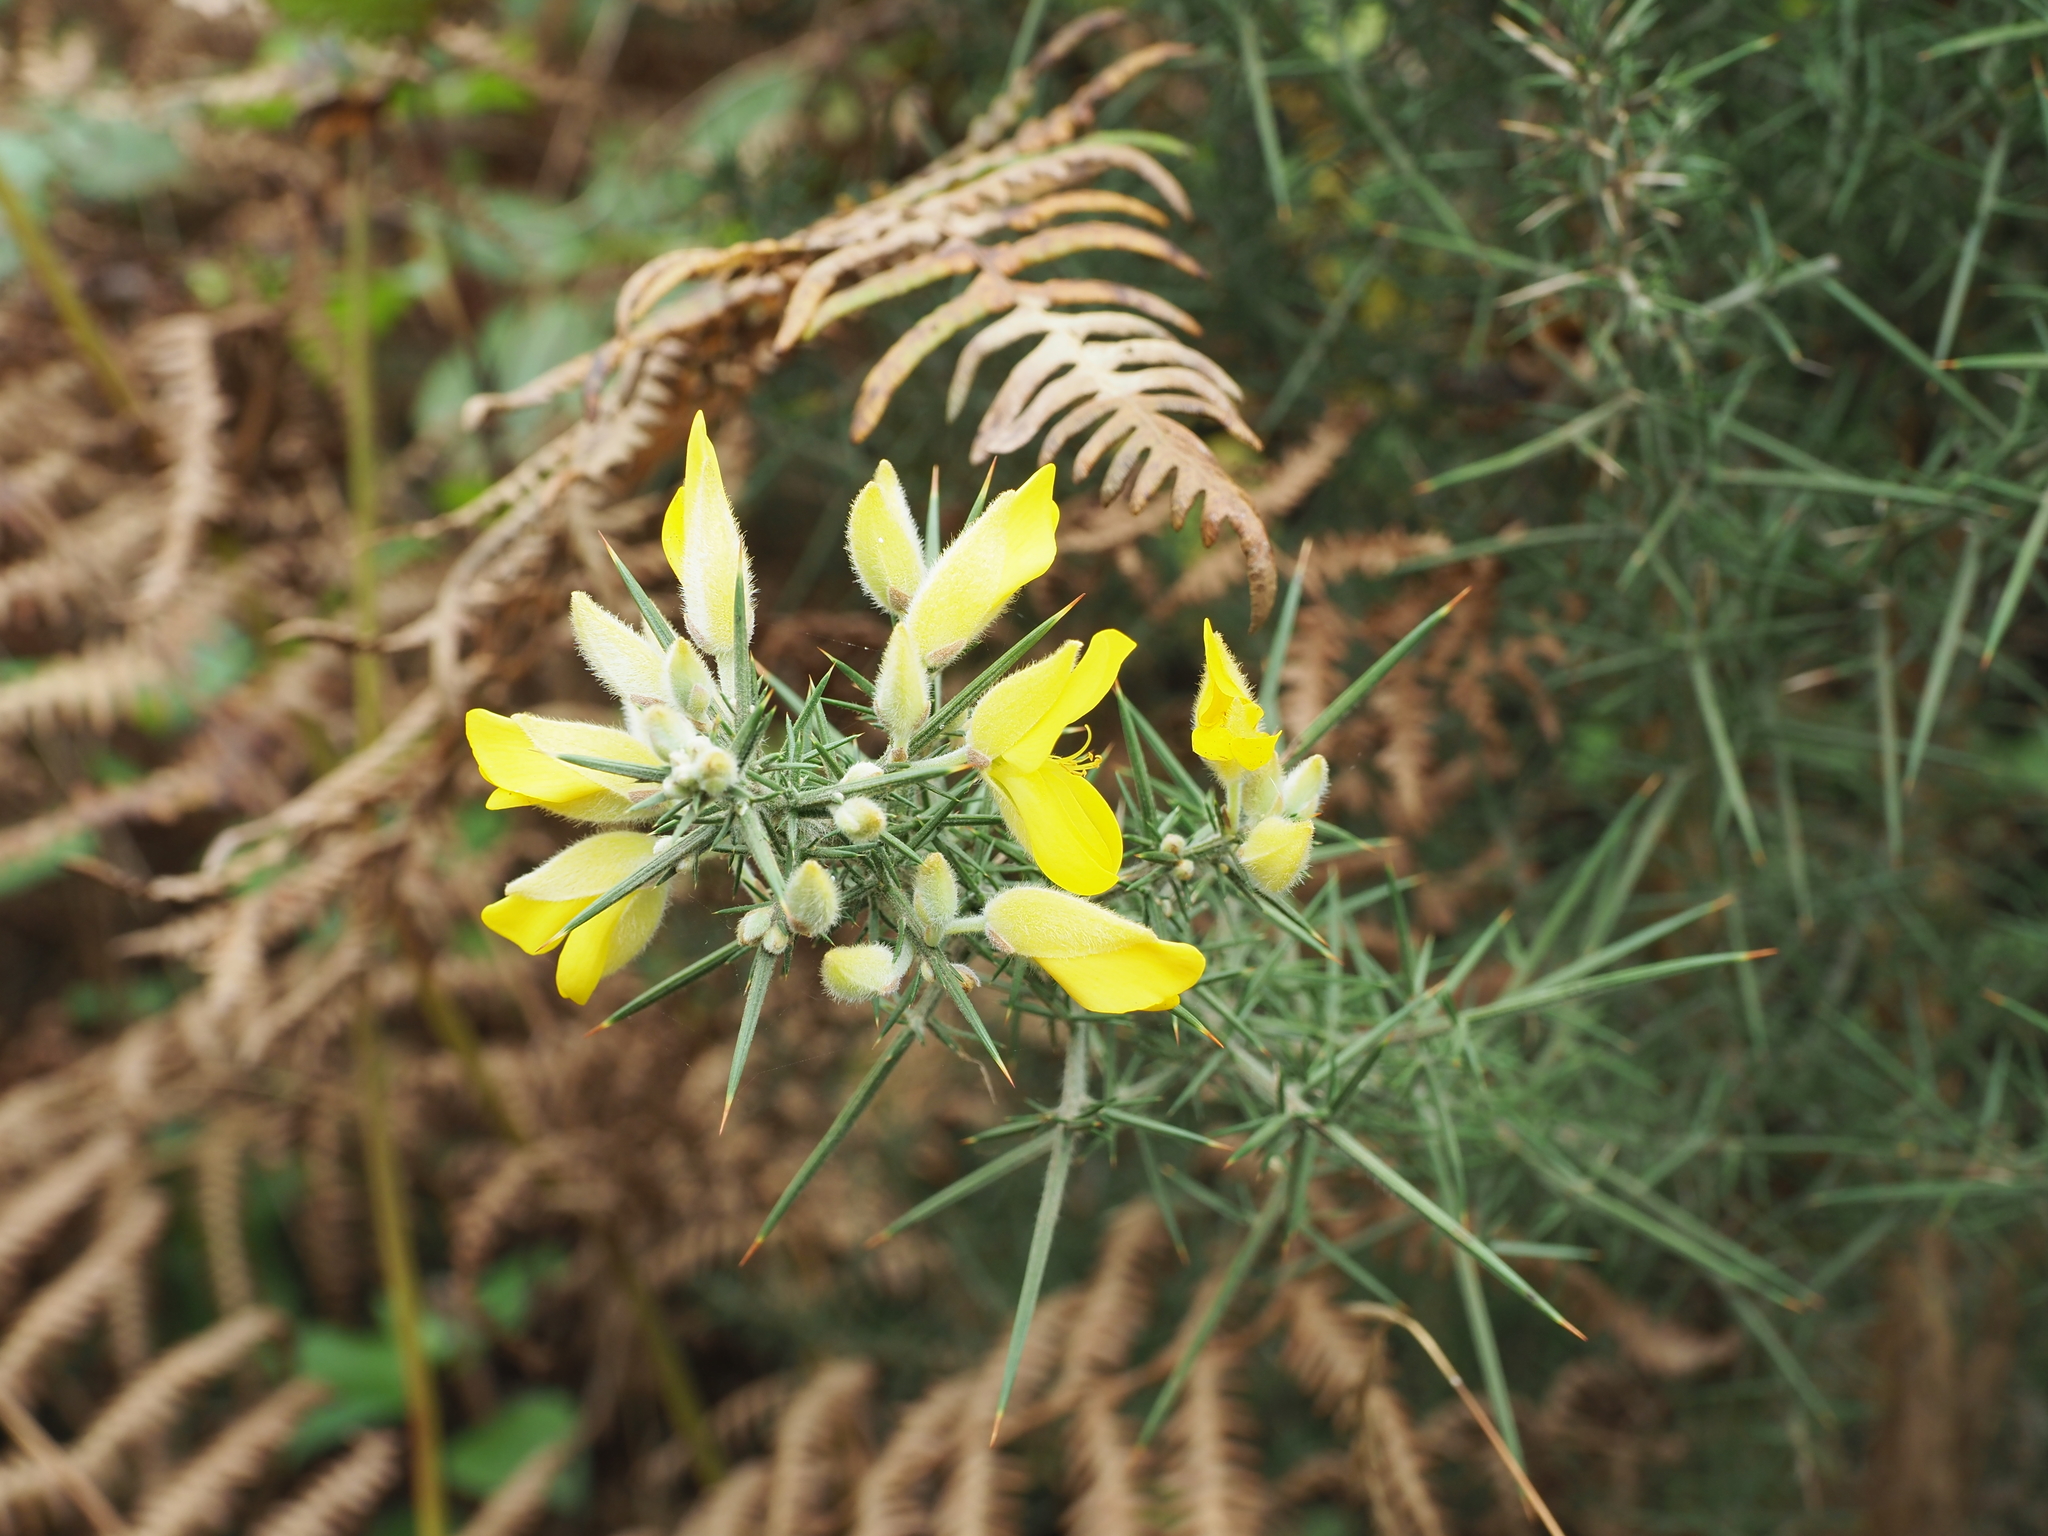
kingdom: Plantae
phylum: Tracheophyta
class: Magnoliopsida
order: Fabales
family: Fabaceae
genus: Ulex
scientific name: Ulex europaeus
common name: Common gorse
